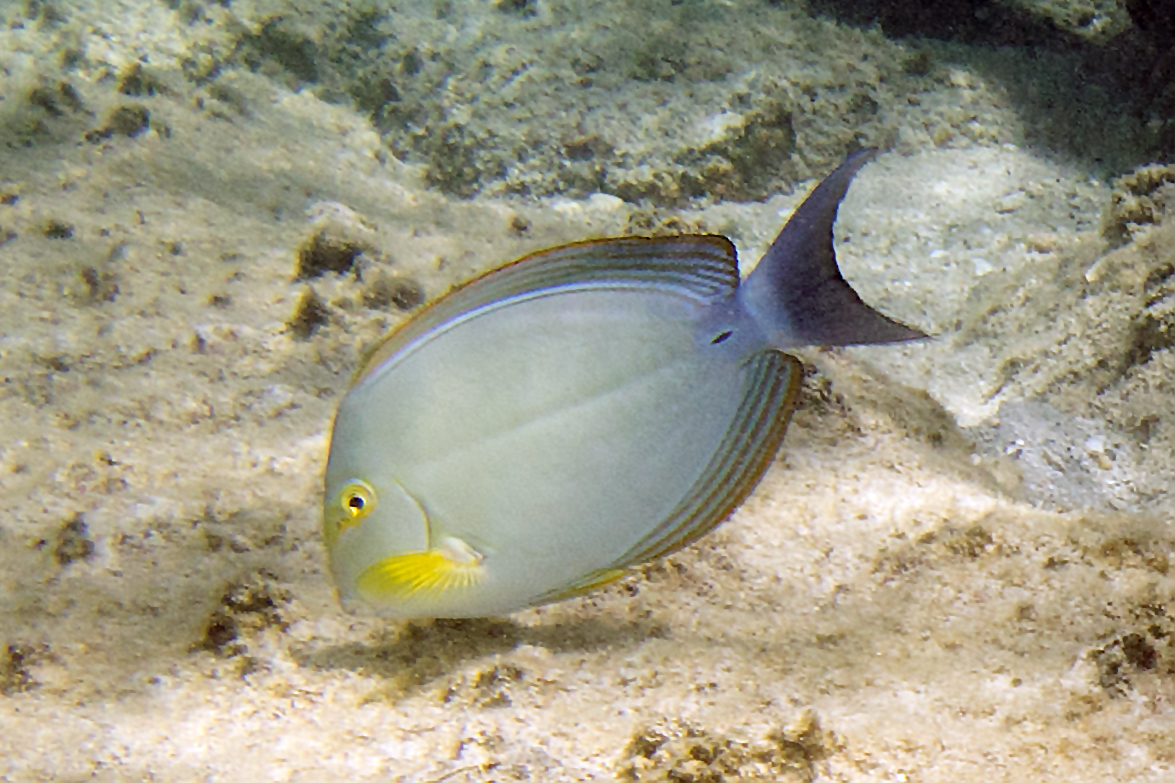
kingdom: Animalia
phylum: Chordata
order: Perciformes
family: Acanthuridae
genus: Acanthurus
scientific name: Acanthurus xanthopterus
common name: Cuvier's surgeonfish
